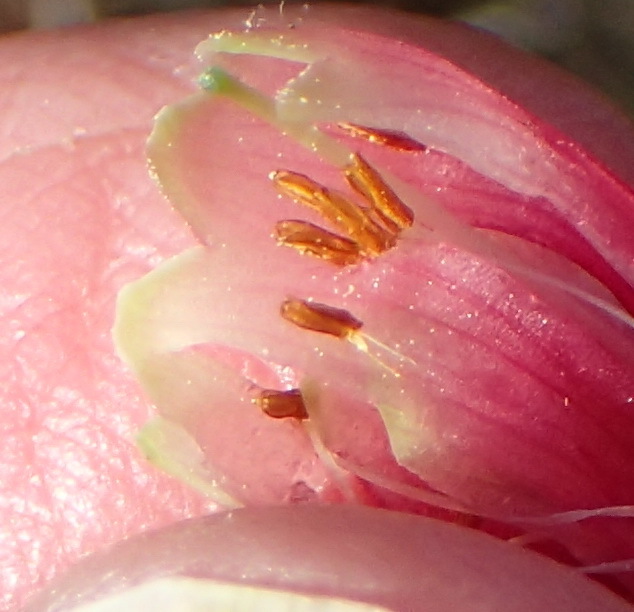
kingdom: Plantae
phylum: Tracheophyta
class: Magnoliopsida
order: Ericales
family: Ericaceae
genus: Erica
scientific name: Erica discolor
